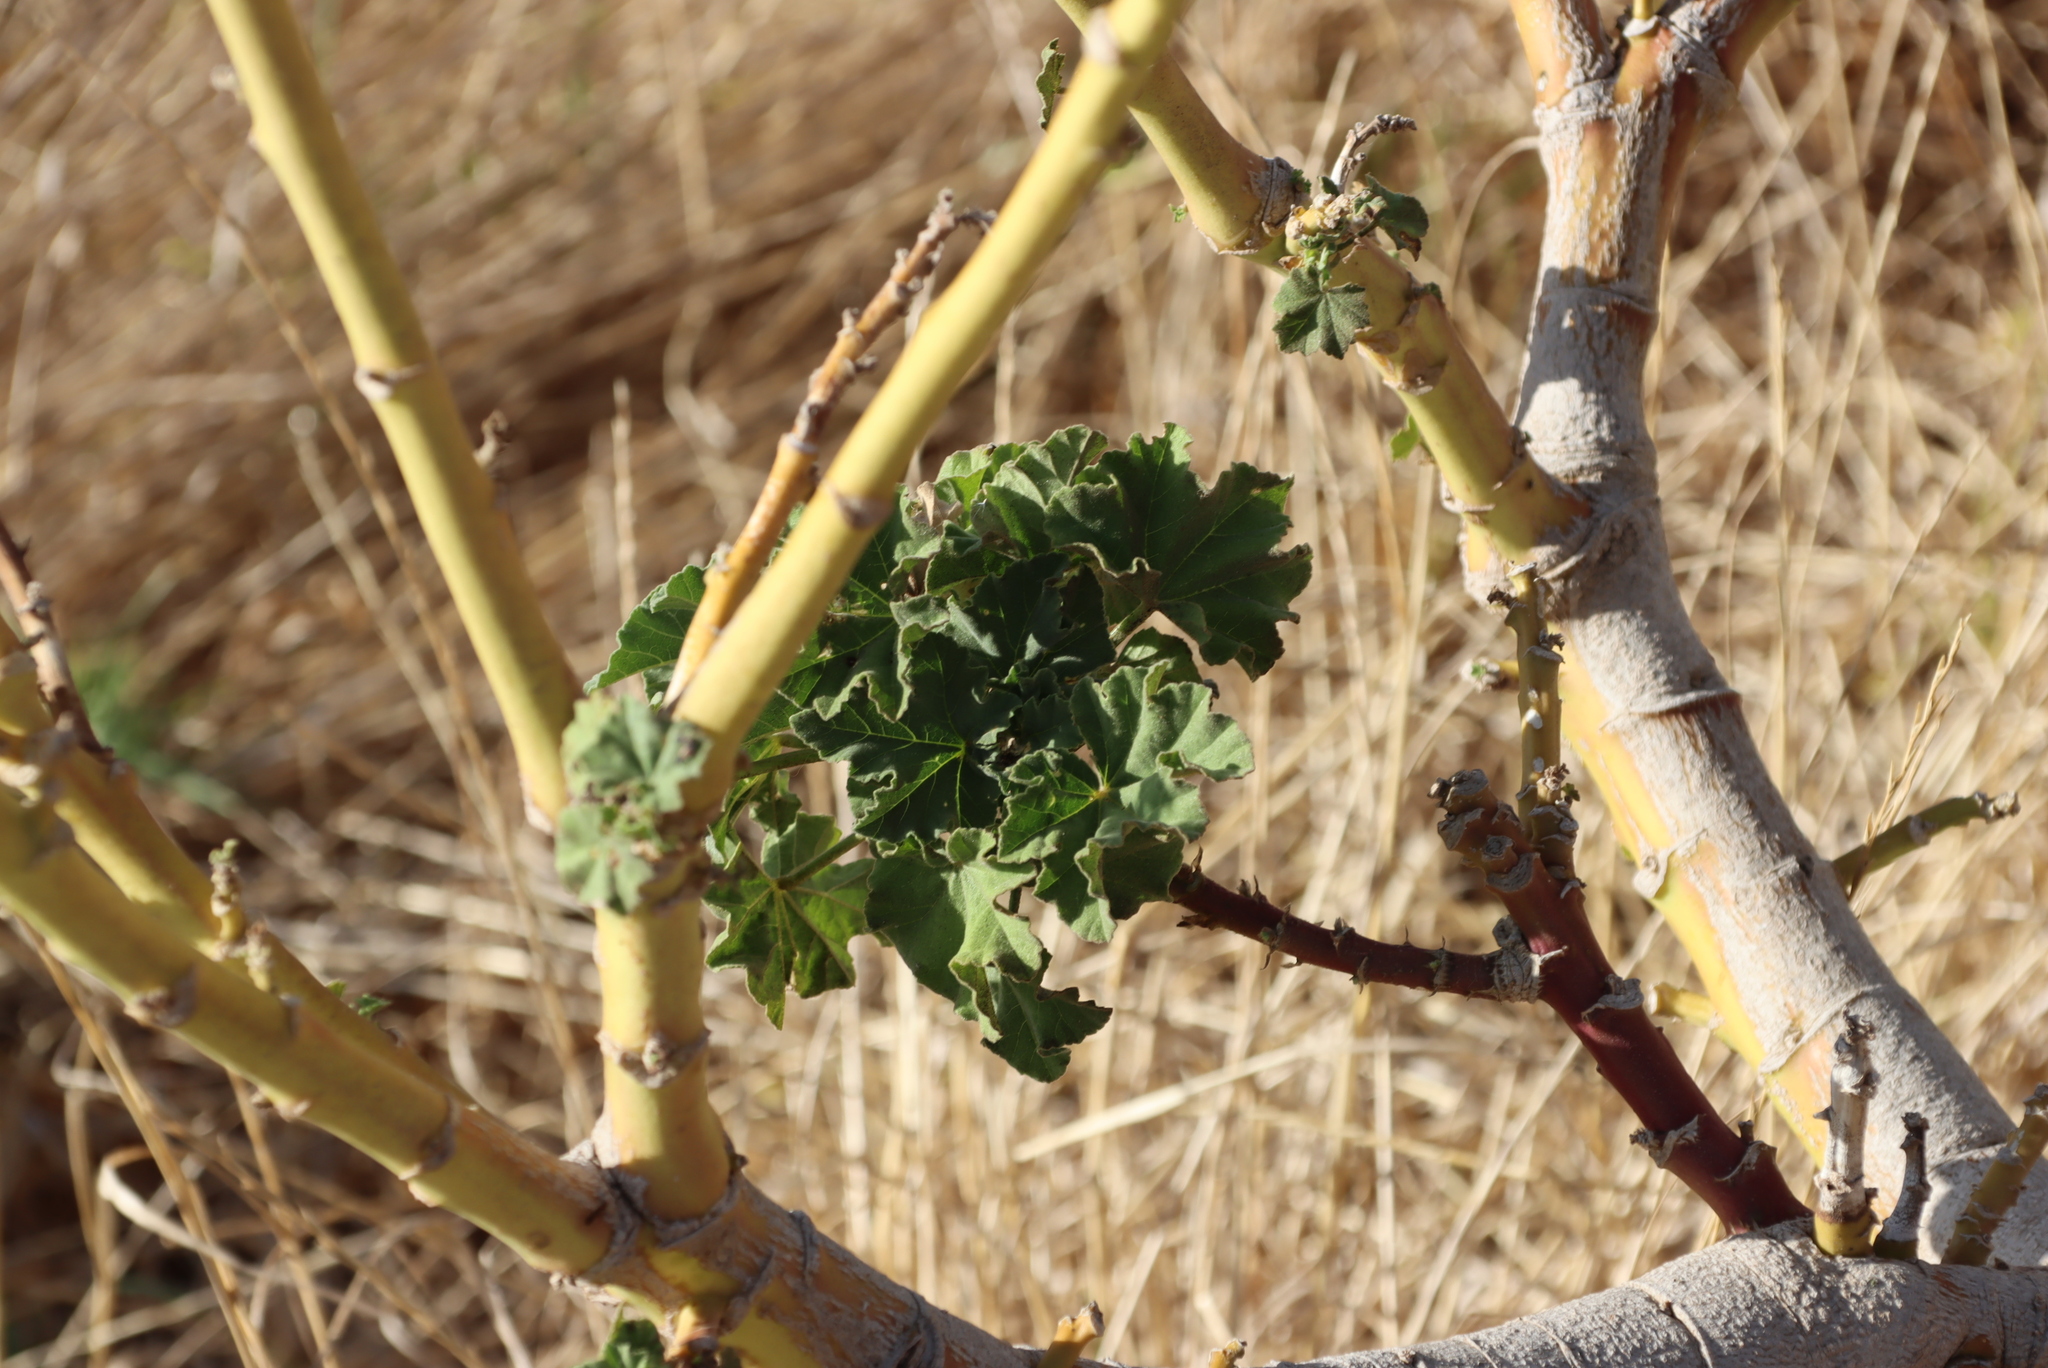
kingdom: Plantae
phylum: Tracheophyta
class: Magnoliopsida
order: Malvales
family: Malvaceae
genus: Malva
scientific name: Malva arborea
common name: Tree mallow
